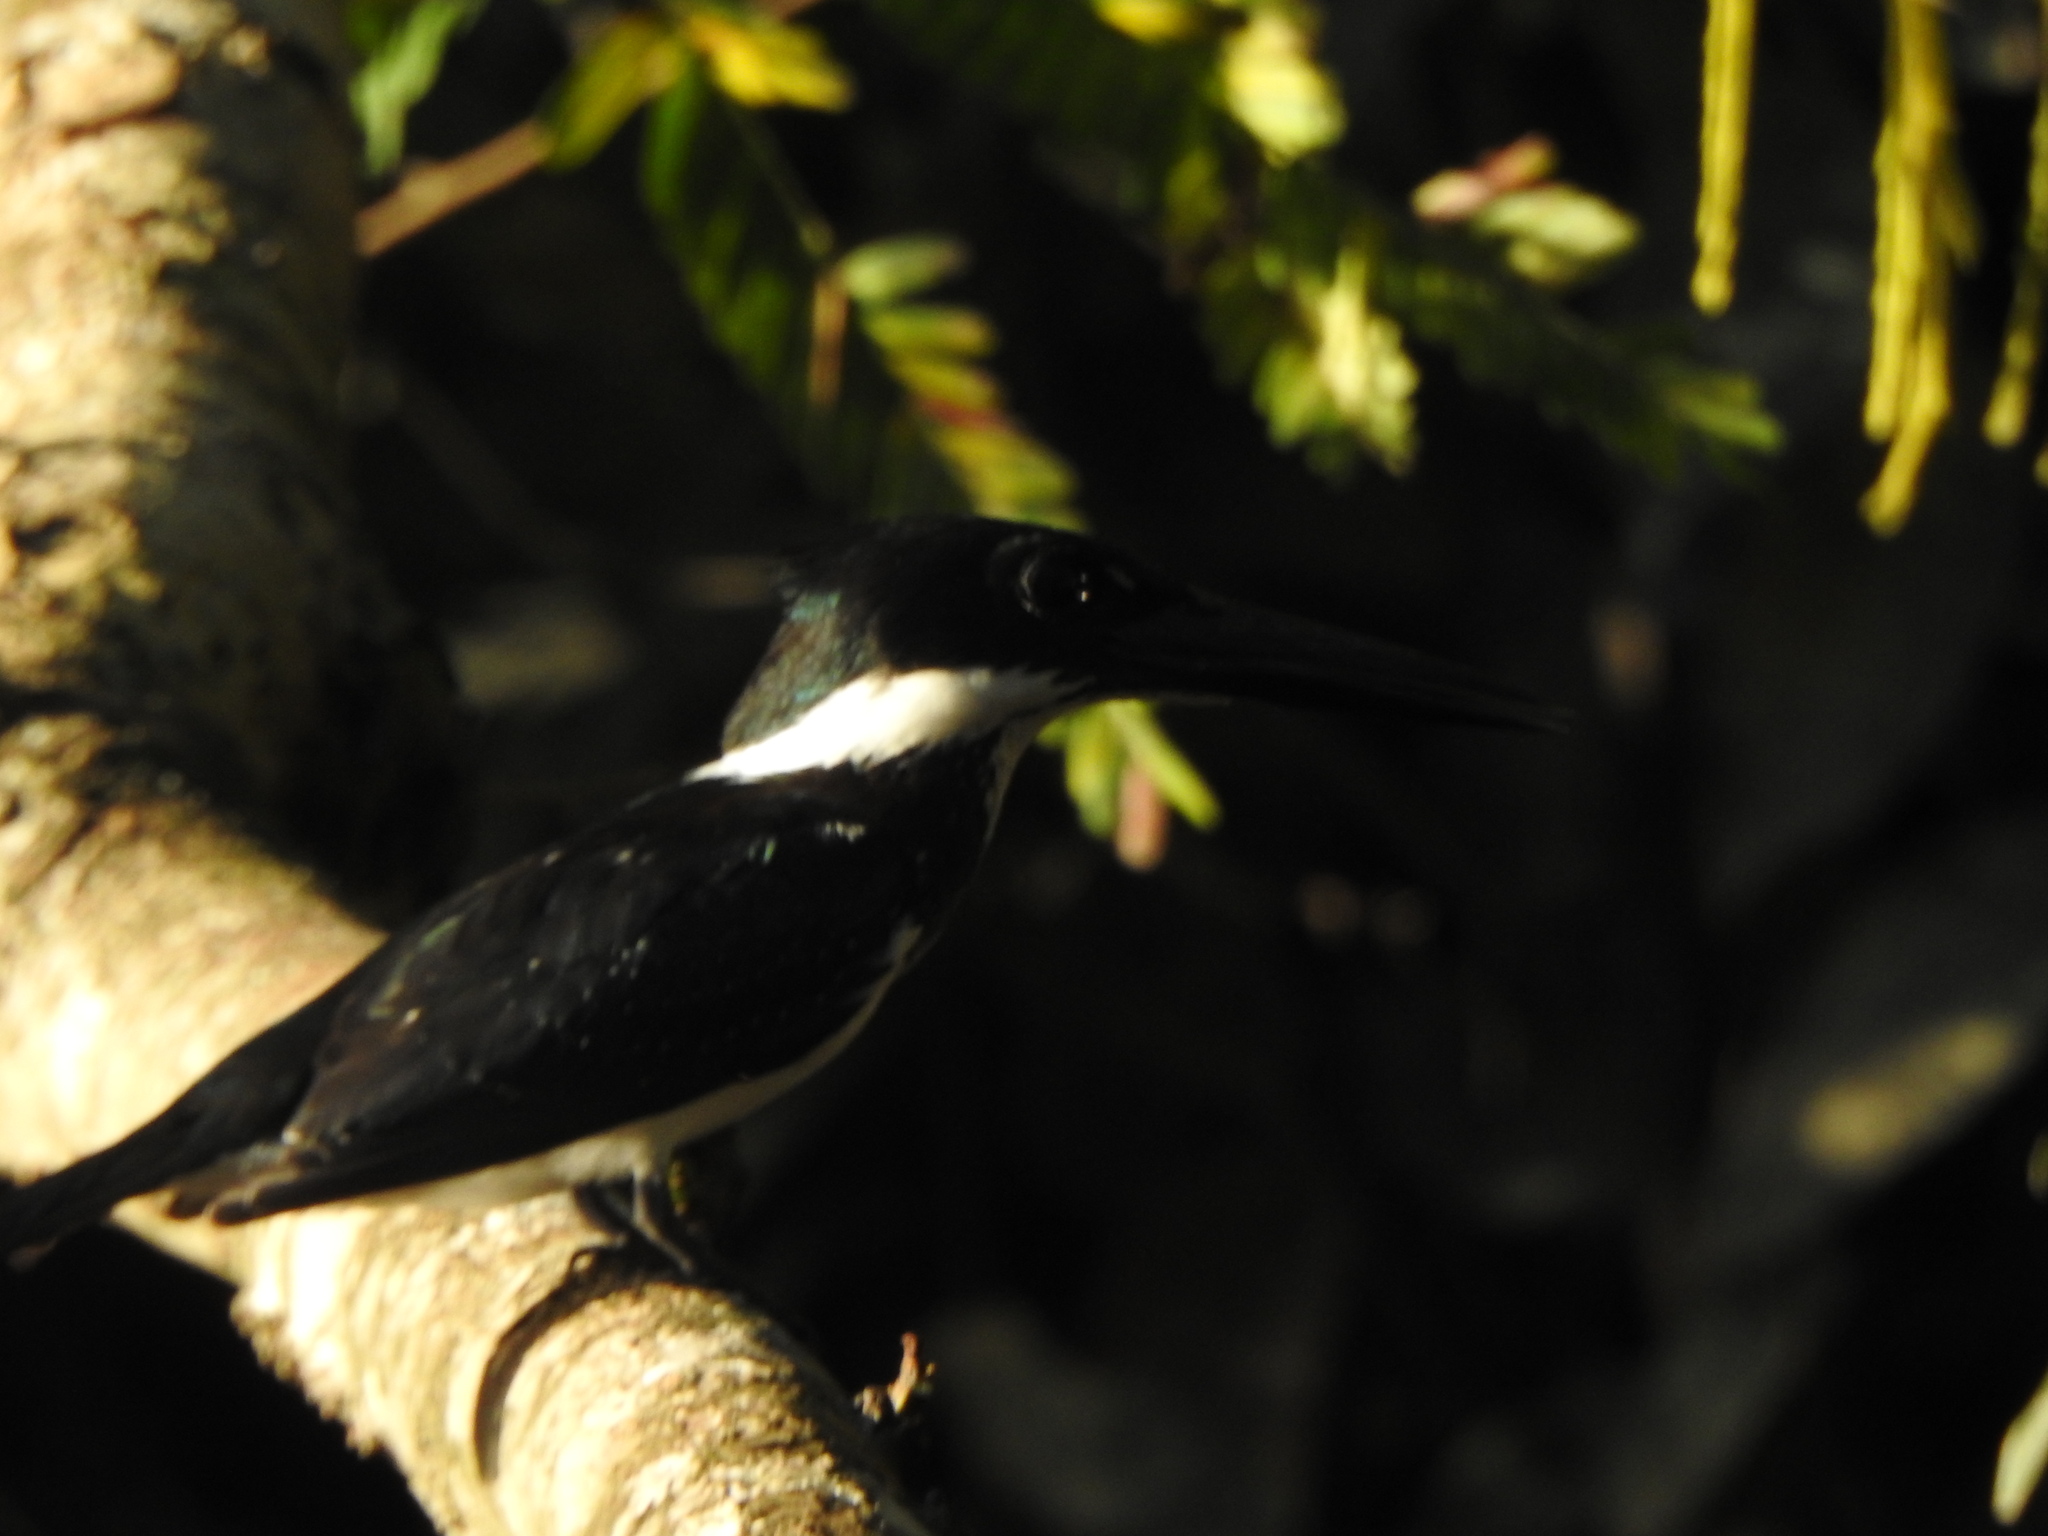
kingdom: Animalia
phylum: Chordata
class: Aves
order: Coraciiformes
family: Alcedinidae
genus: Chloroceryle
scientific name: Chloroceryle amazona
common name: Amazon kingfisher
